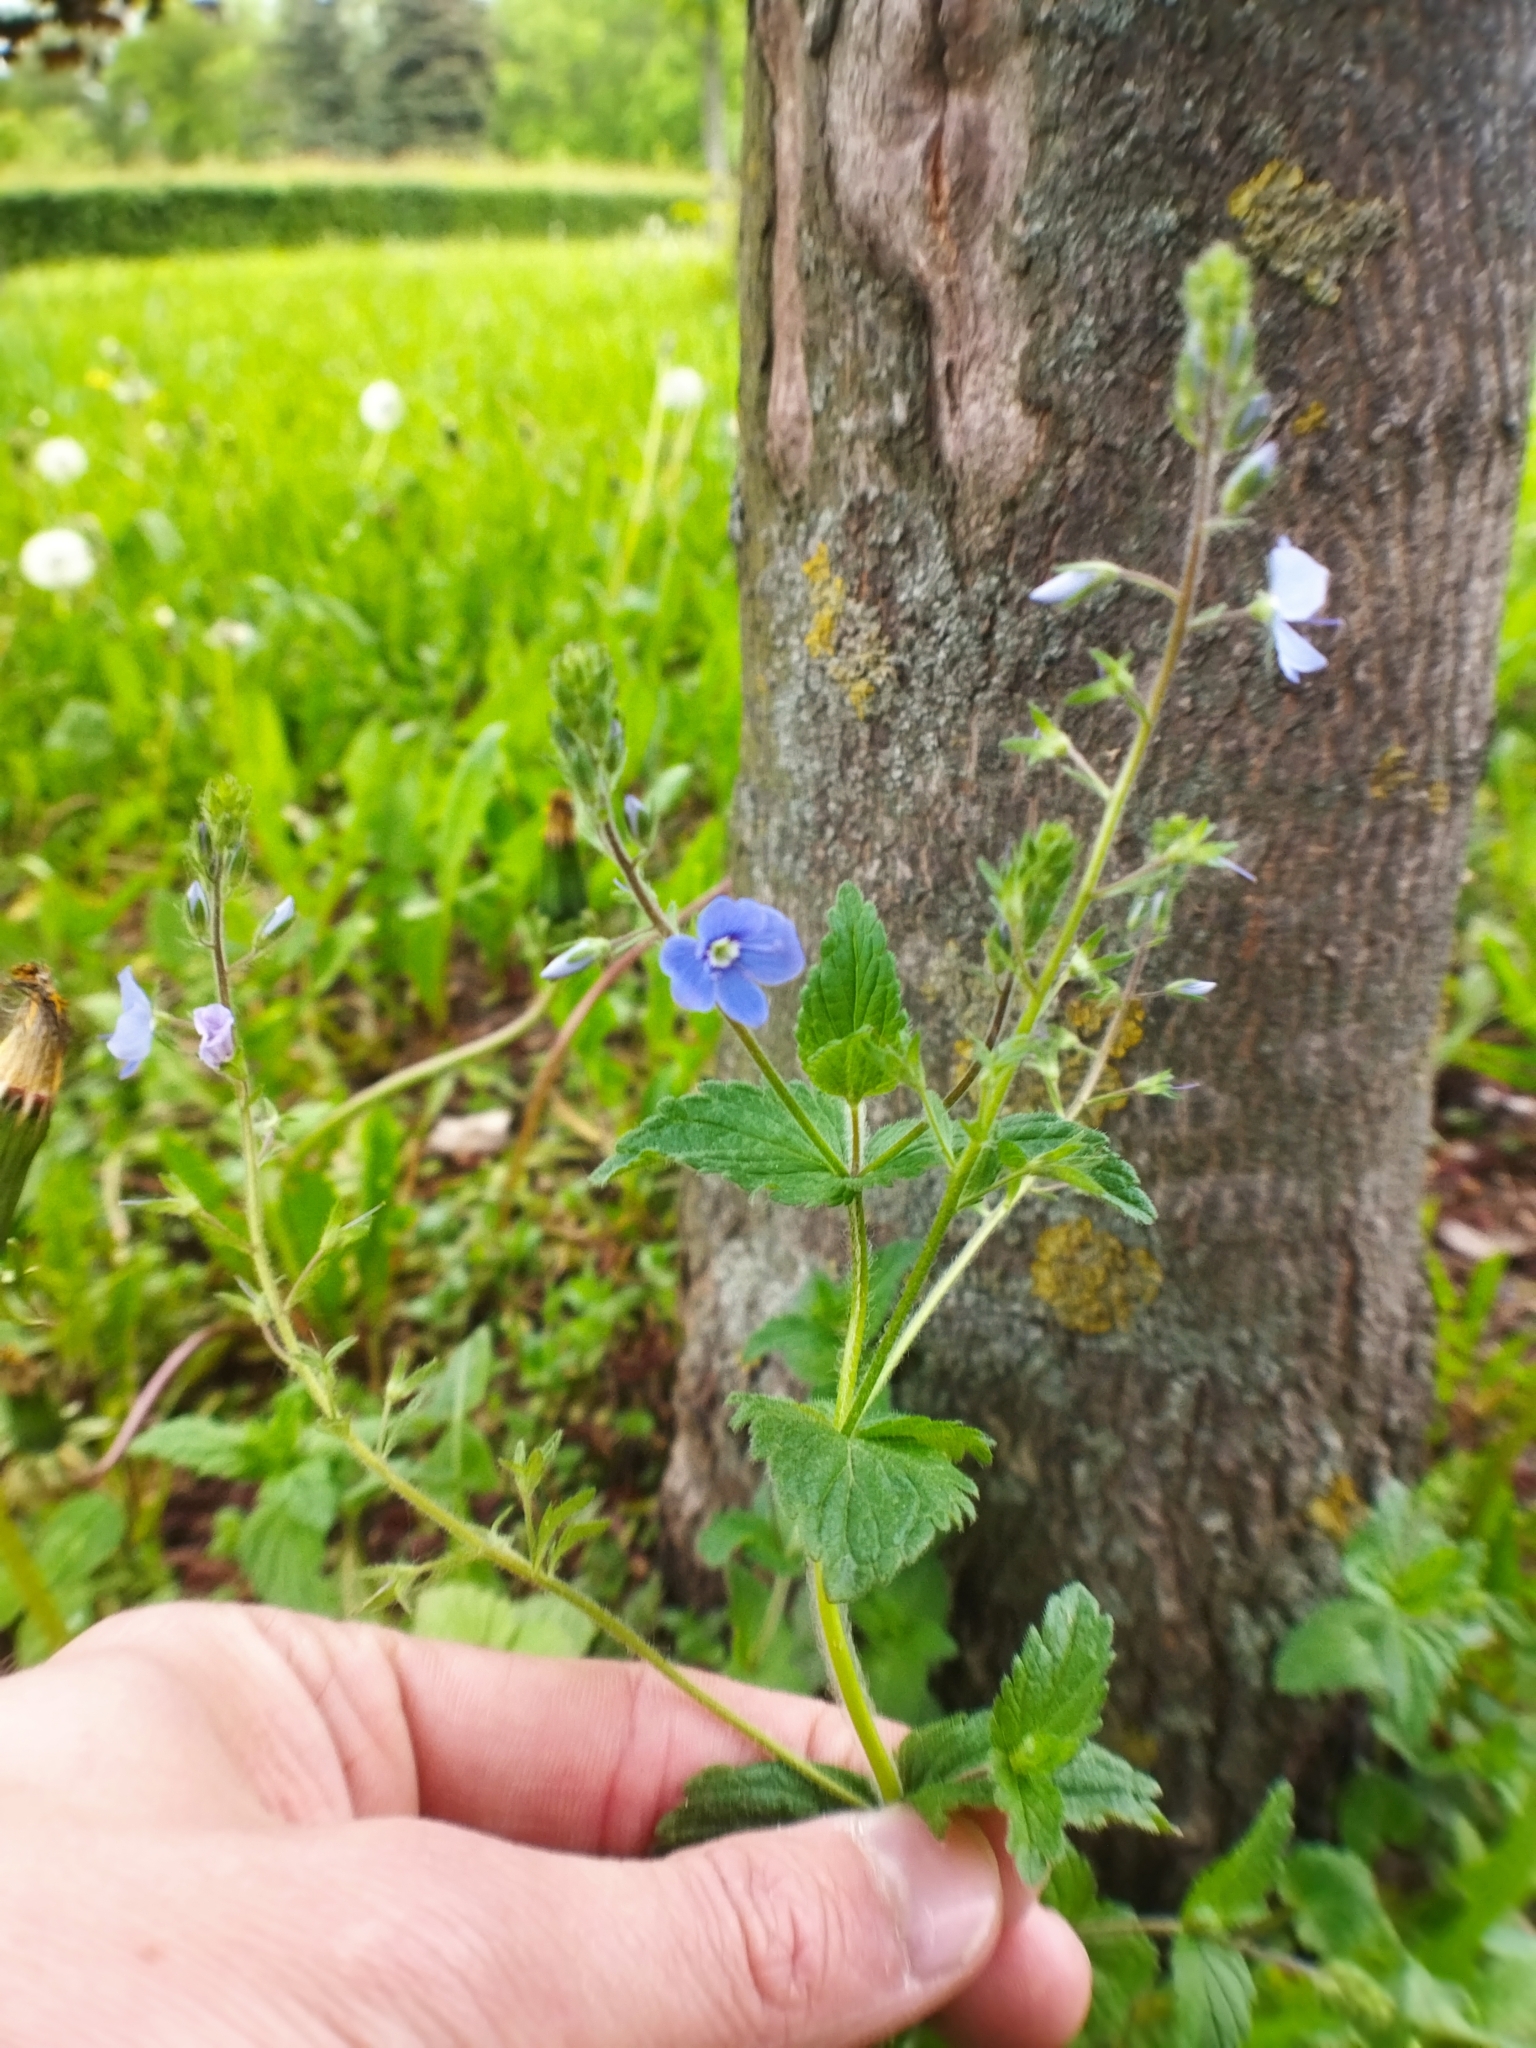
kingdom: Plantae
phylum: Tracheophyta
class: Magnoliopsida
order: Lamiales
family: Plantaginaceae
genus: Veronica
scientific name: Veronica chamaedrys
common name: Germander speedwell
